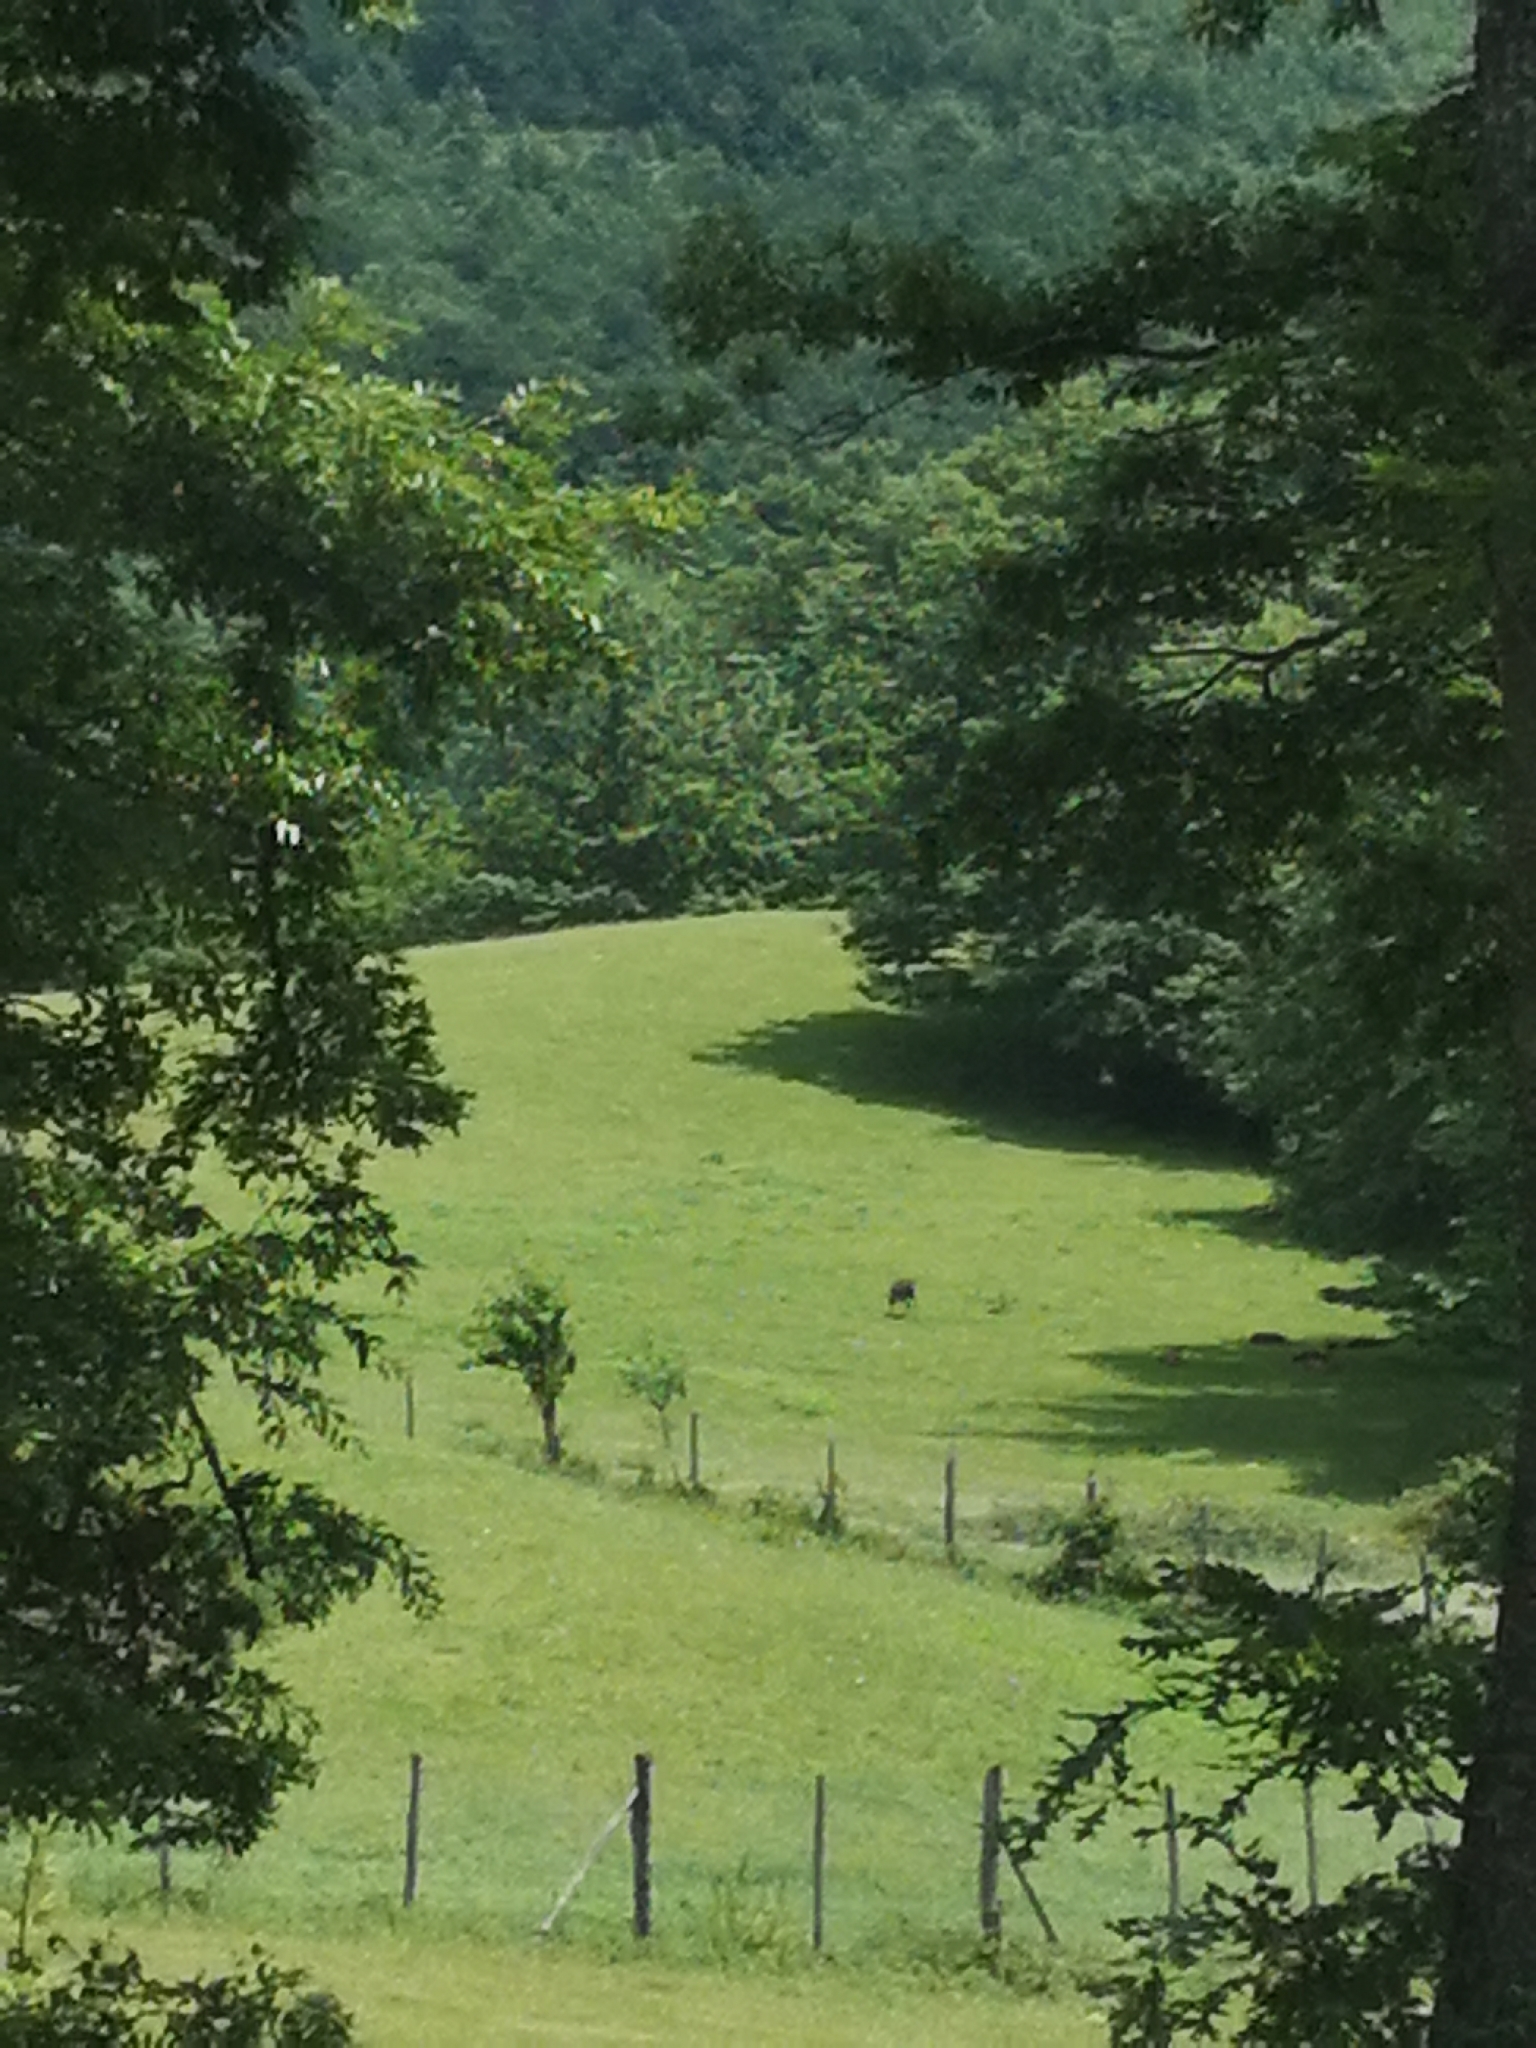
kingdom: Animalia
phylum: Chordata
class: Mammalia
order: Artiodactyla
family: Cervidae
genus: Dama
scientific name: Dama dama
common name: Fallow deer
